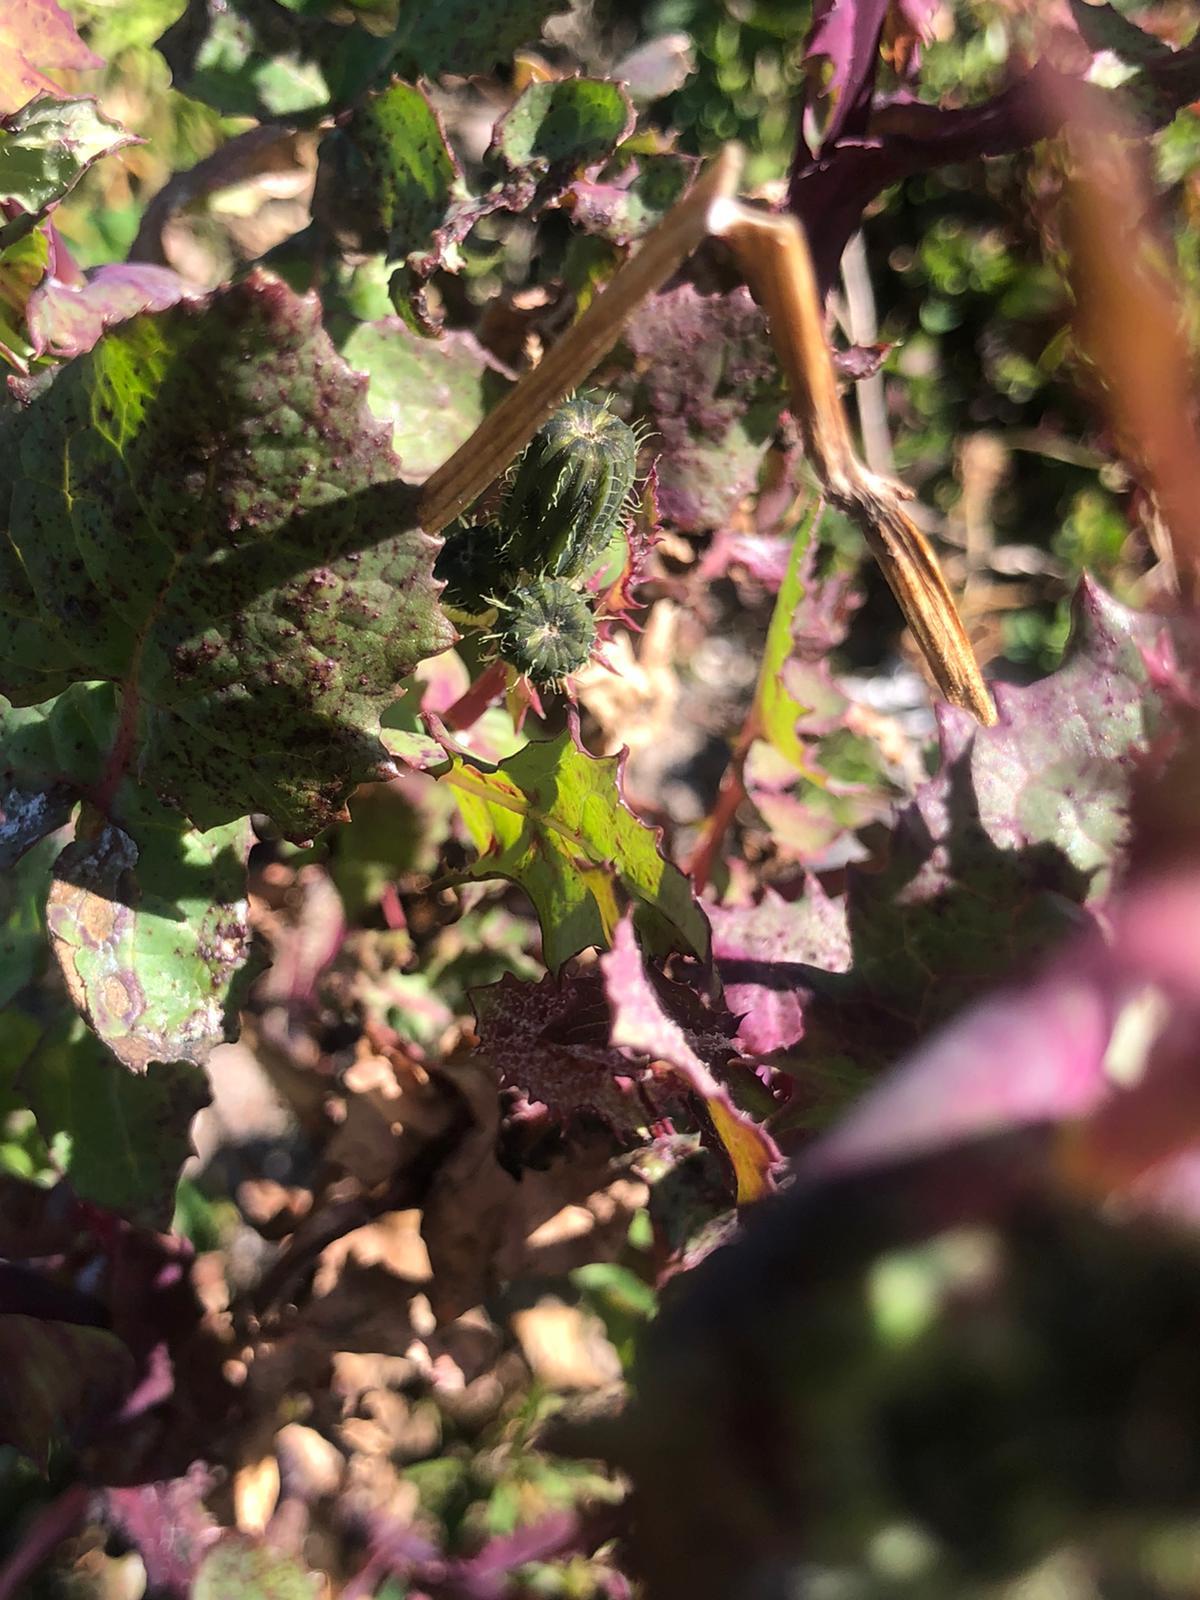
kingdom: Plantae
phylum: Tracheophyta
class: Magnoliopsida
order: Asterales
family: Asteraceae
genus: Sonchus
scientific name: Sonchus oleraceus
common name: Common sowthistle
